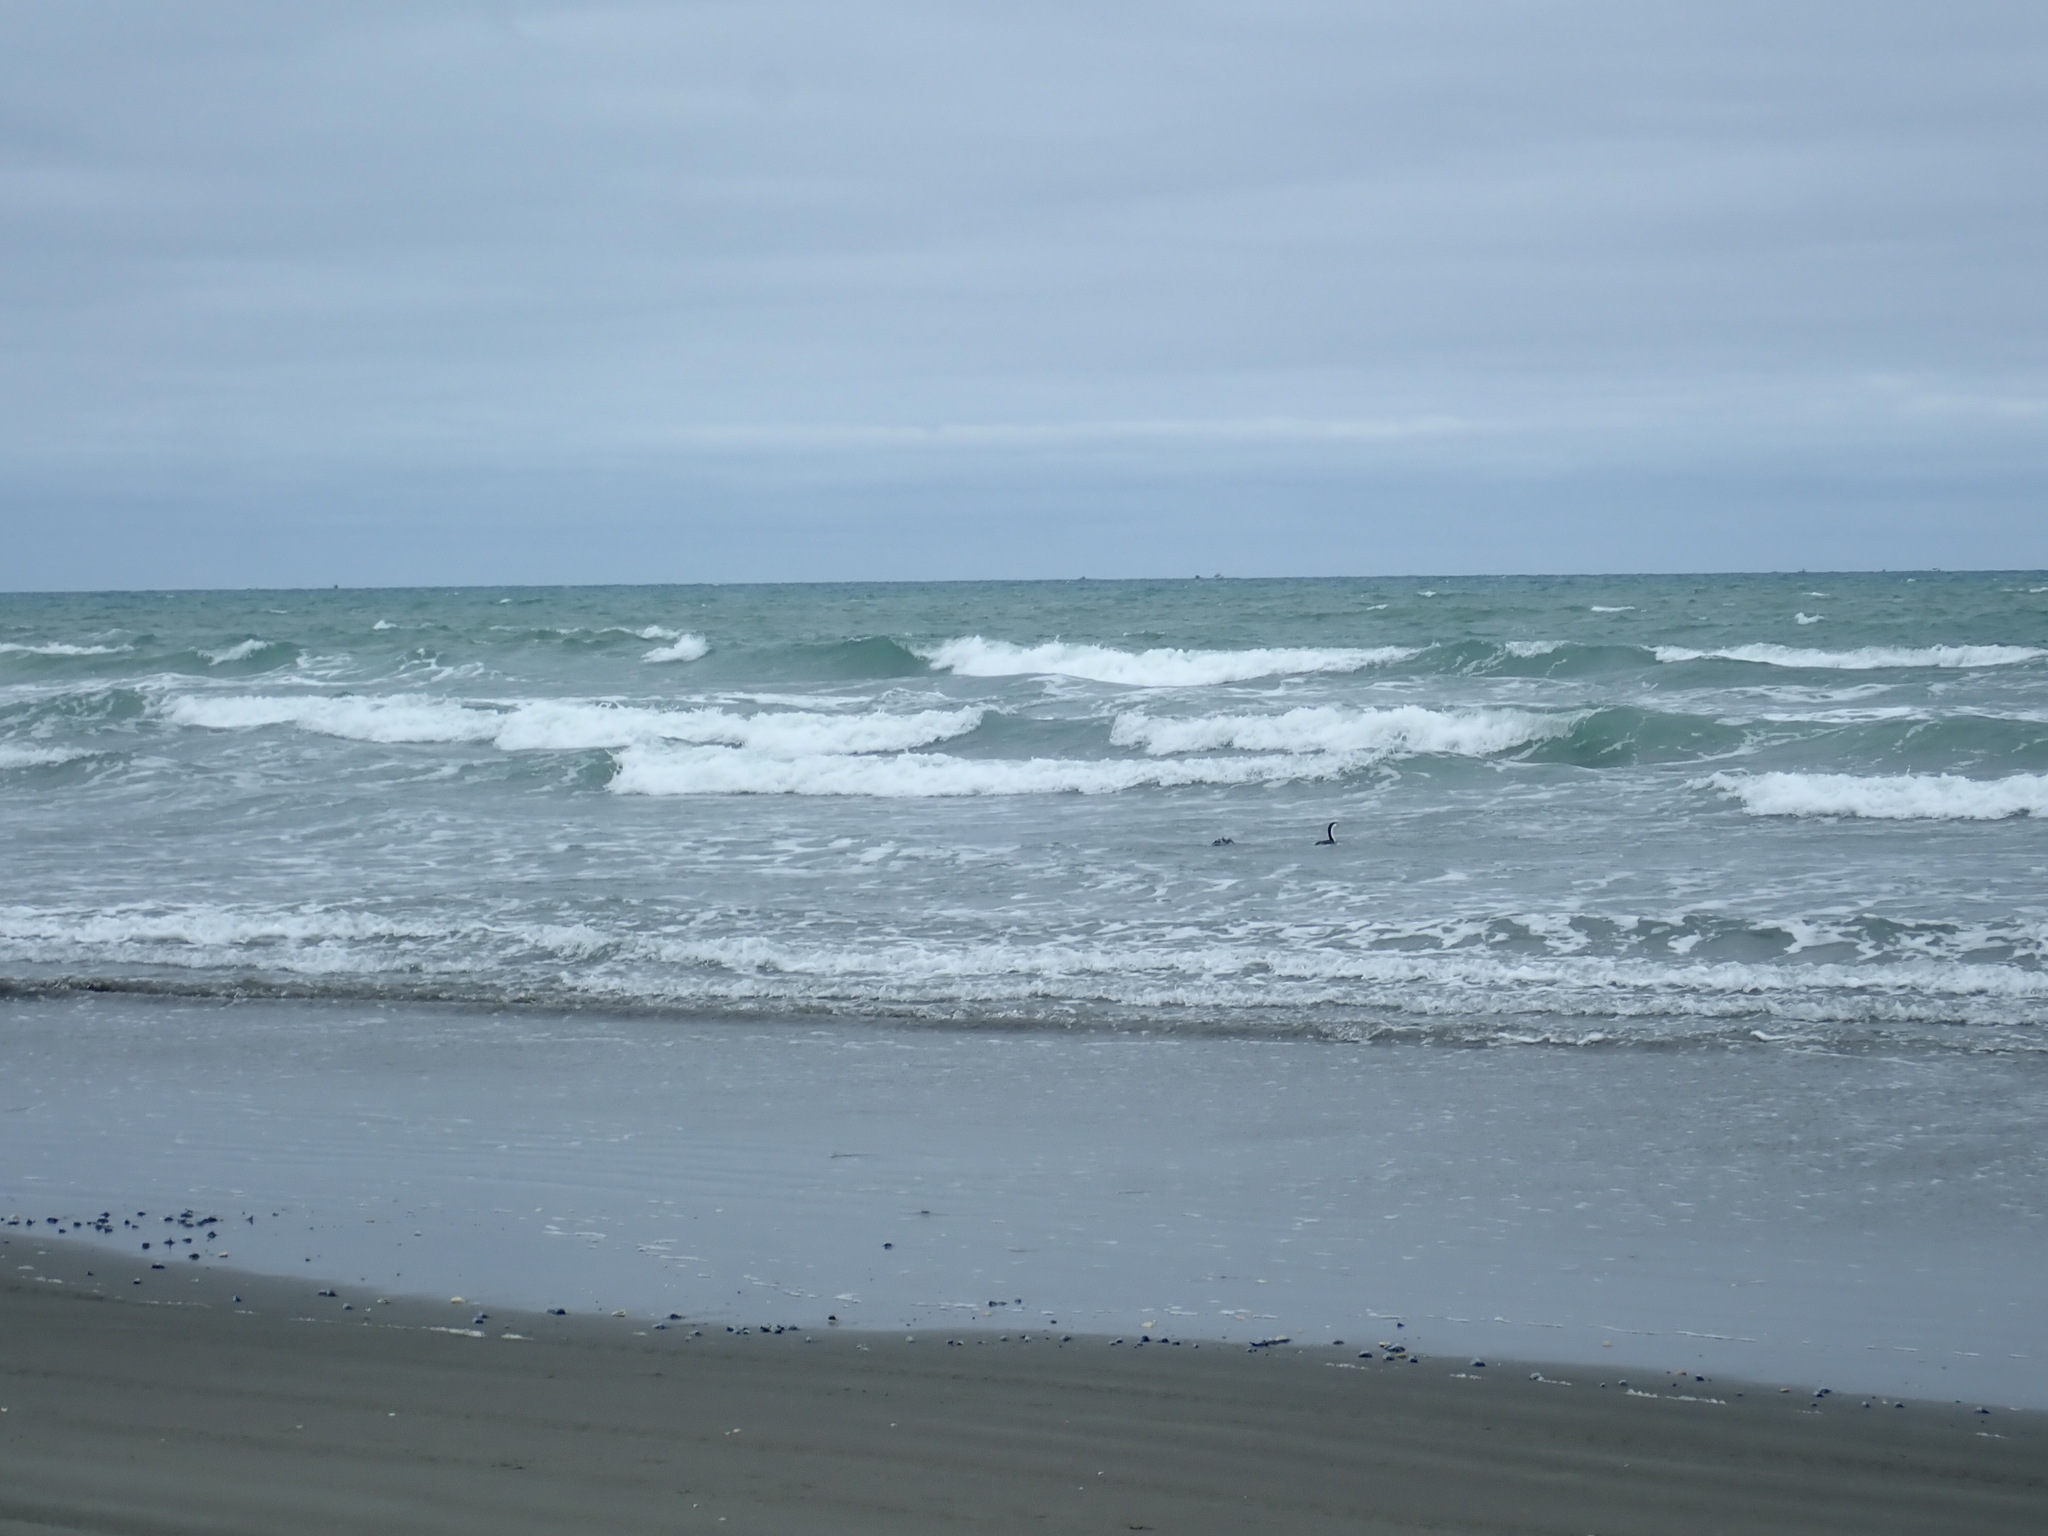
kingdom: Animalia
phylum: Chordata
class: Aves
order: Suliformes
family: Phalacrocoracidae
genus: Phalacrocorax
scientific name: Phalacrocorax varius
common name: Pied cormorant
